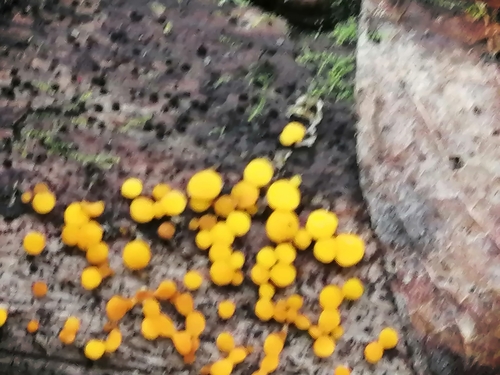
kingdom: Fungi
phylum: Ascomycota
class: Leotiomycetes
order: Helotiales
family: Pezizellaceae
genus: Calycina
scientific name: Calycina citrina
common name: Yellow fairy cups
